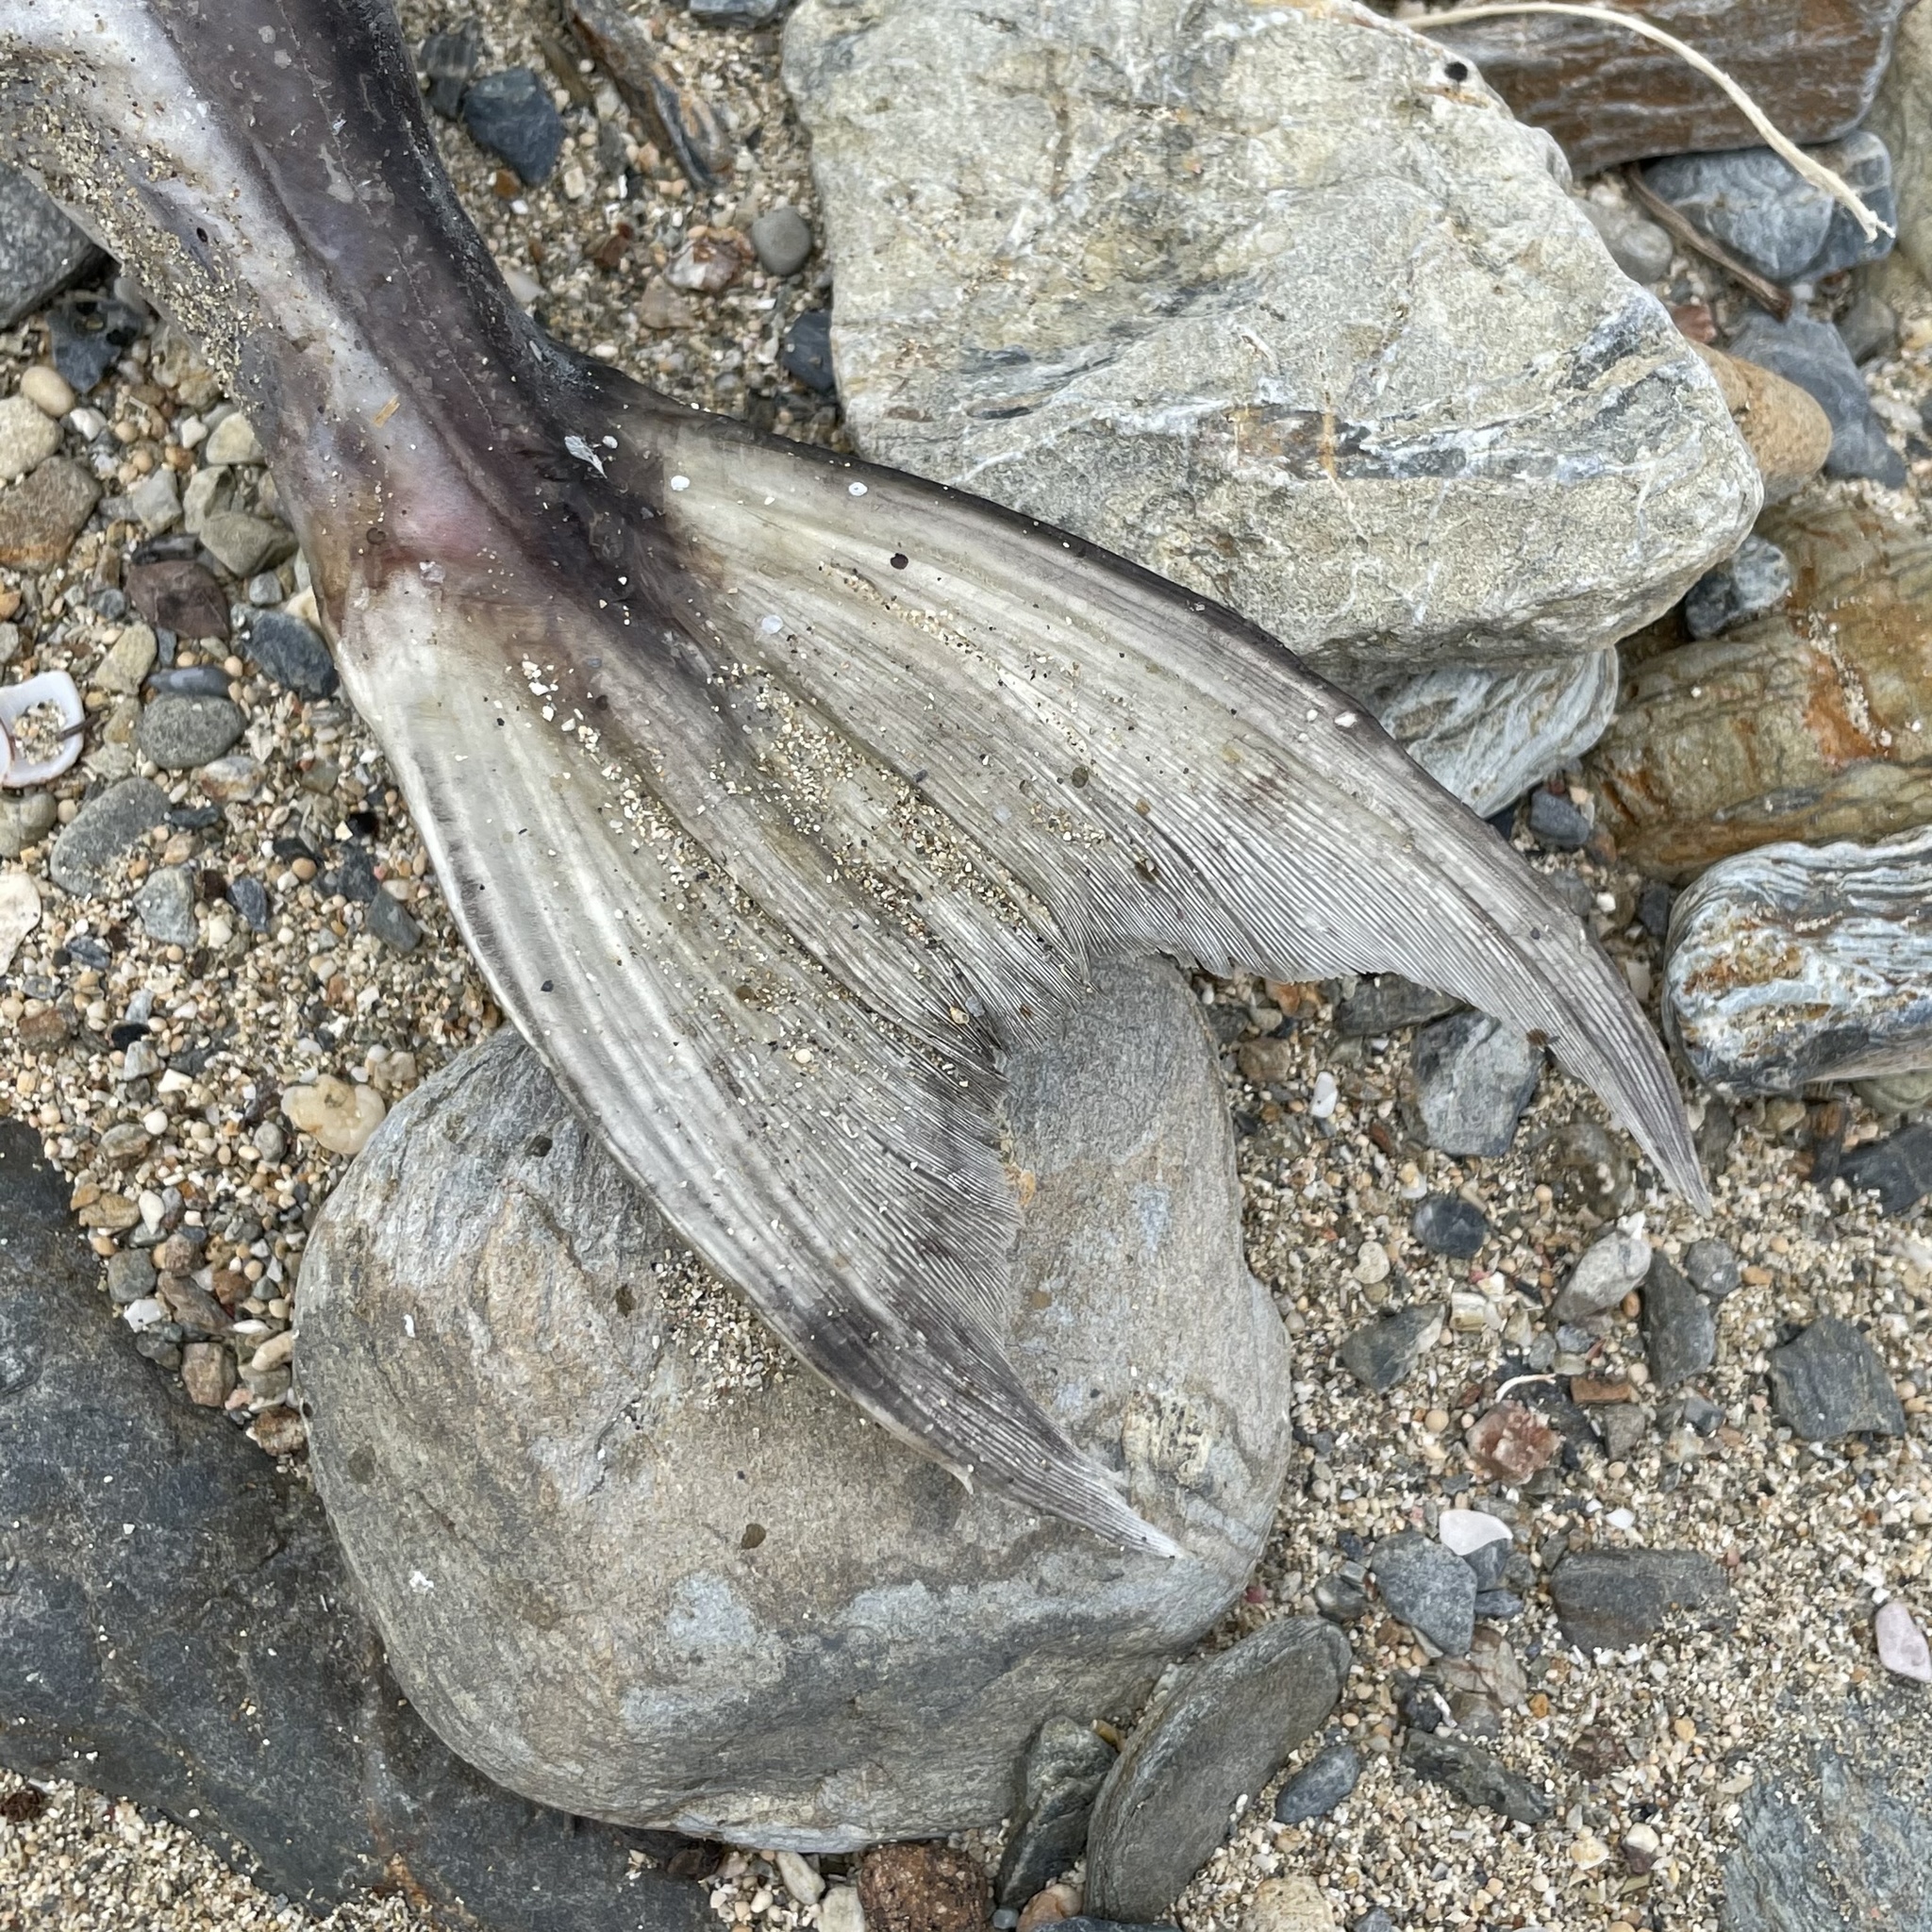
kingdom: Animalia
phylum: Chordata
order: Tetraodontiformes
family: Tetraodontidae
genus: Lagocephalus
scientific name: Lagocephalus sceleratus
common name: Silverstripe blaasop
